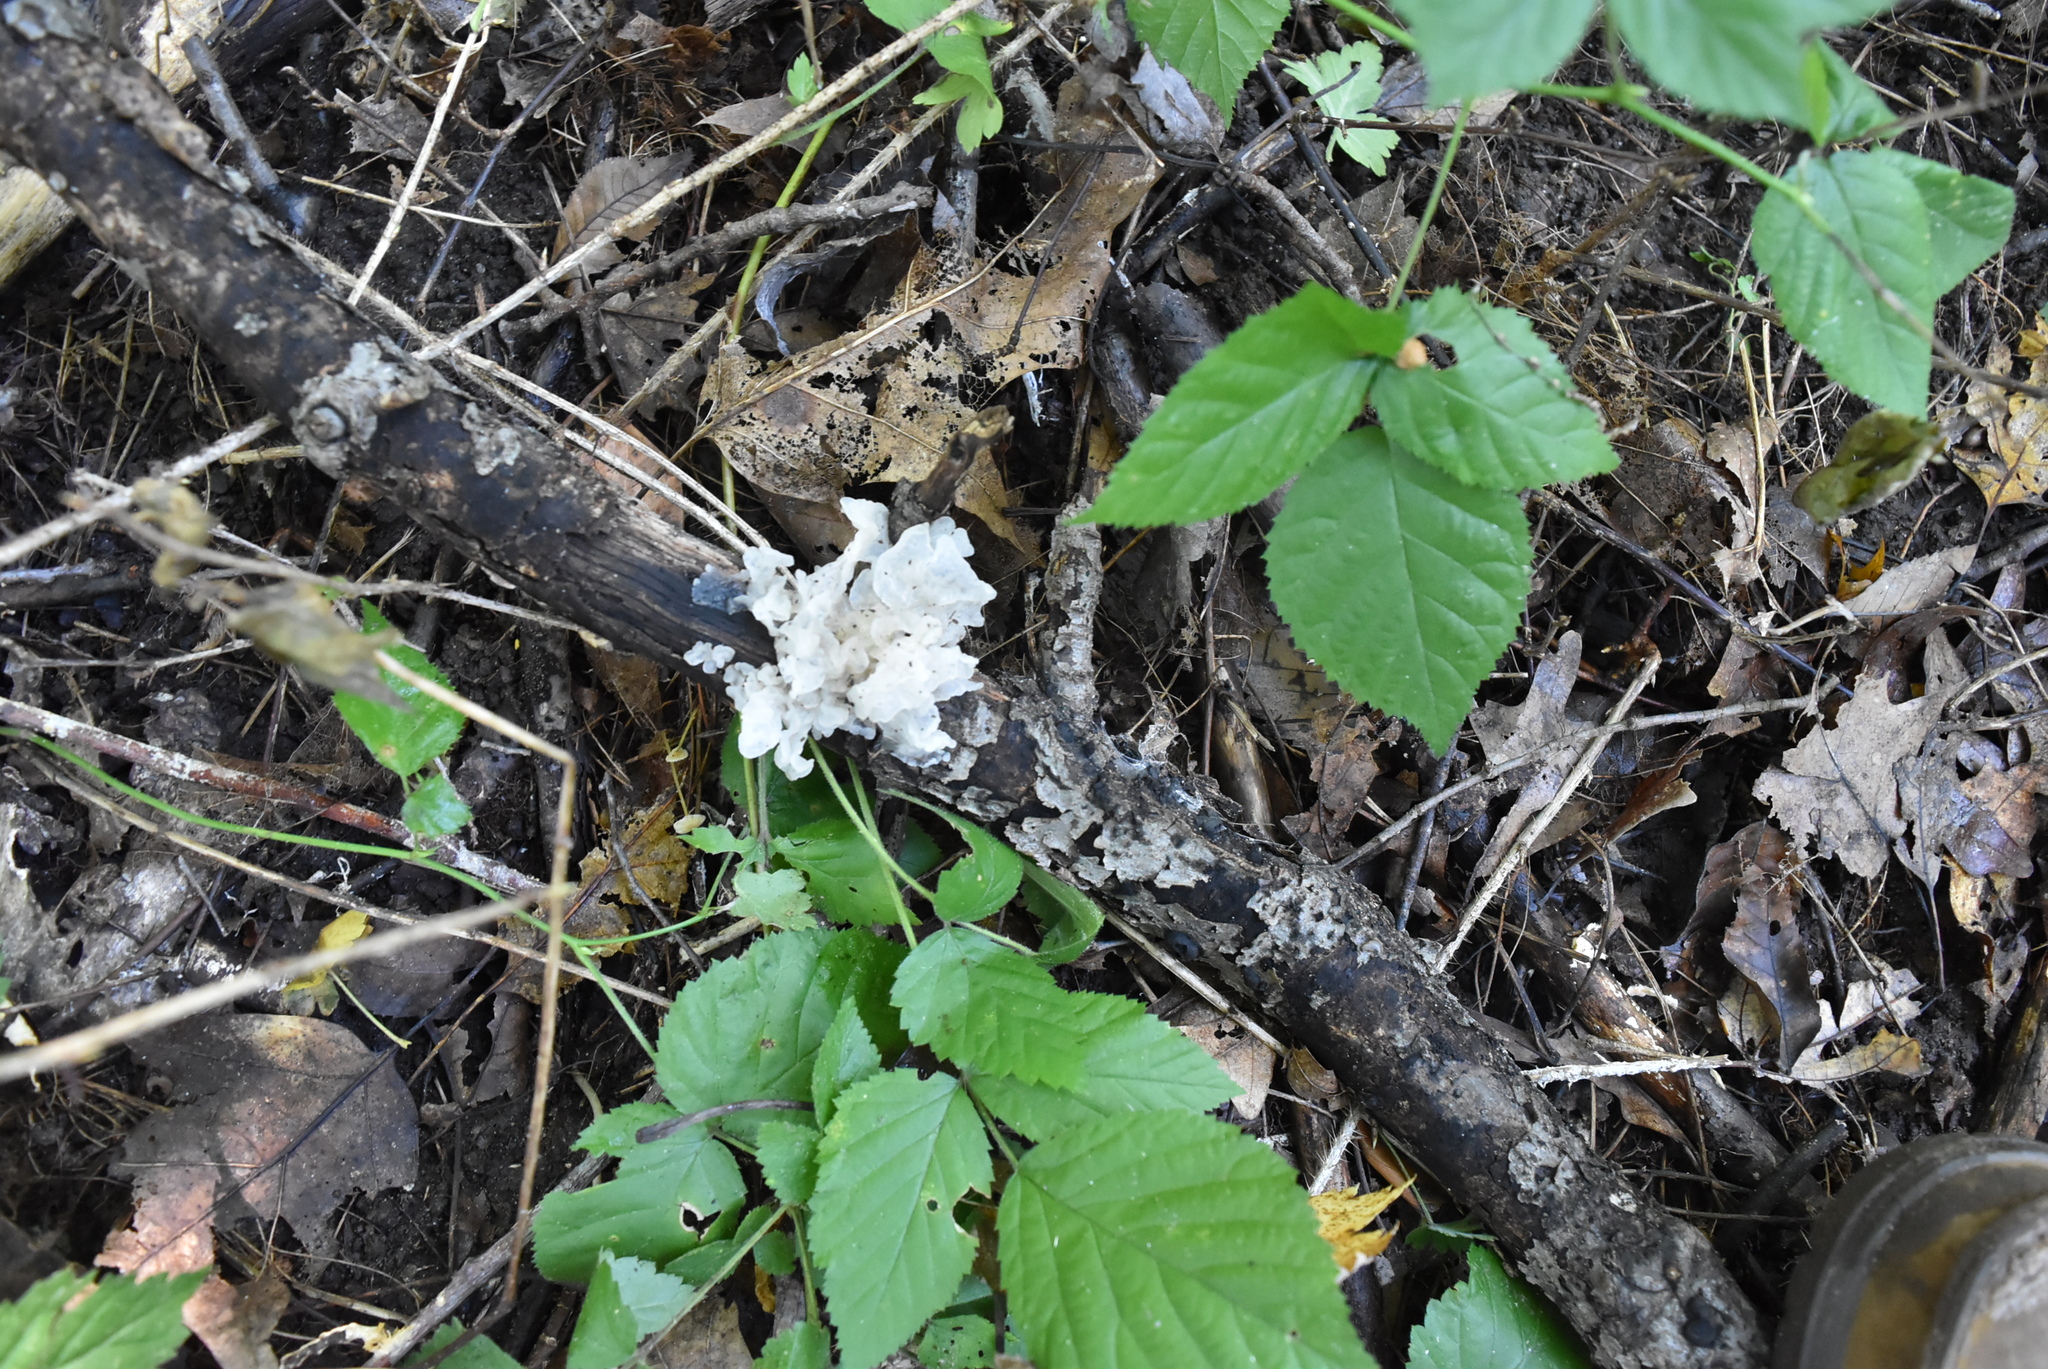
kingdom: Fungi
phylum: Basidiomycota
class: Agaricomycetes
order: Auriculariales
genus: Ductifera
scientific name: Ductifera pululahuana
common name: White jelly fungus
